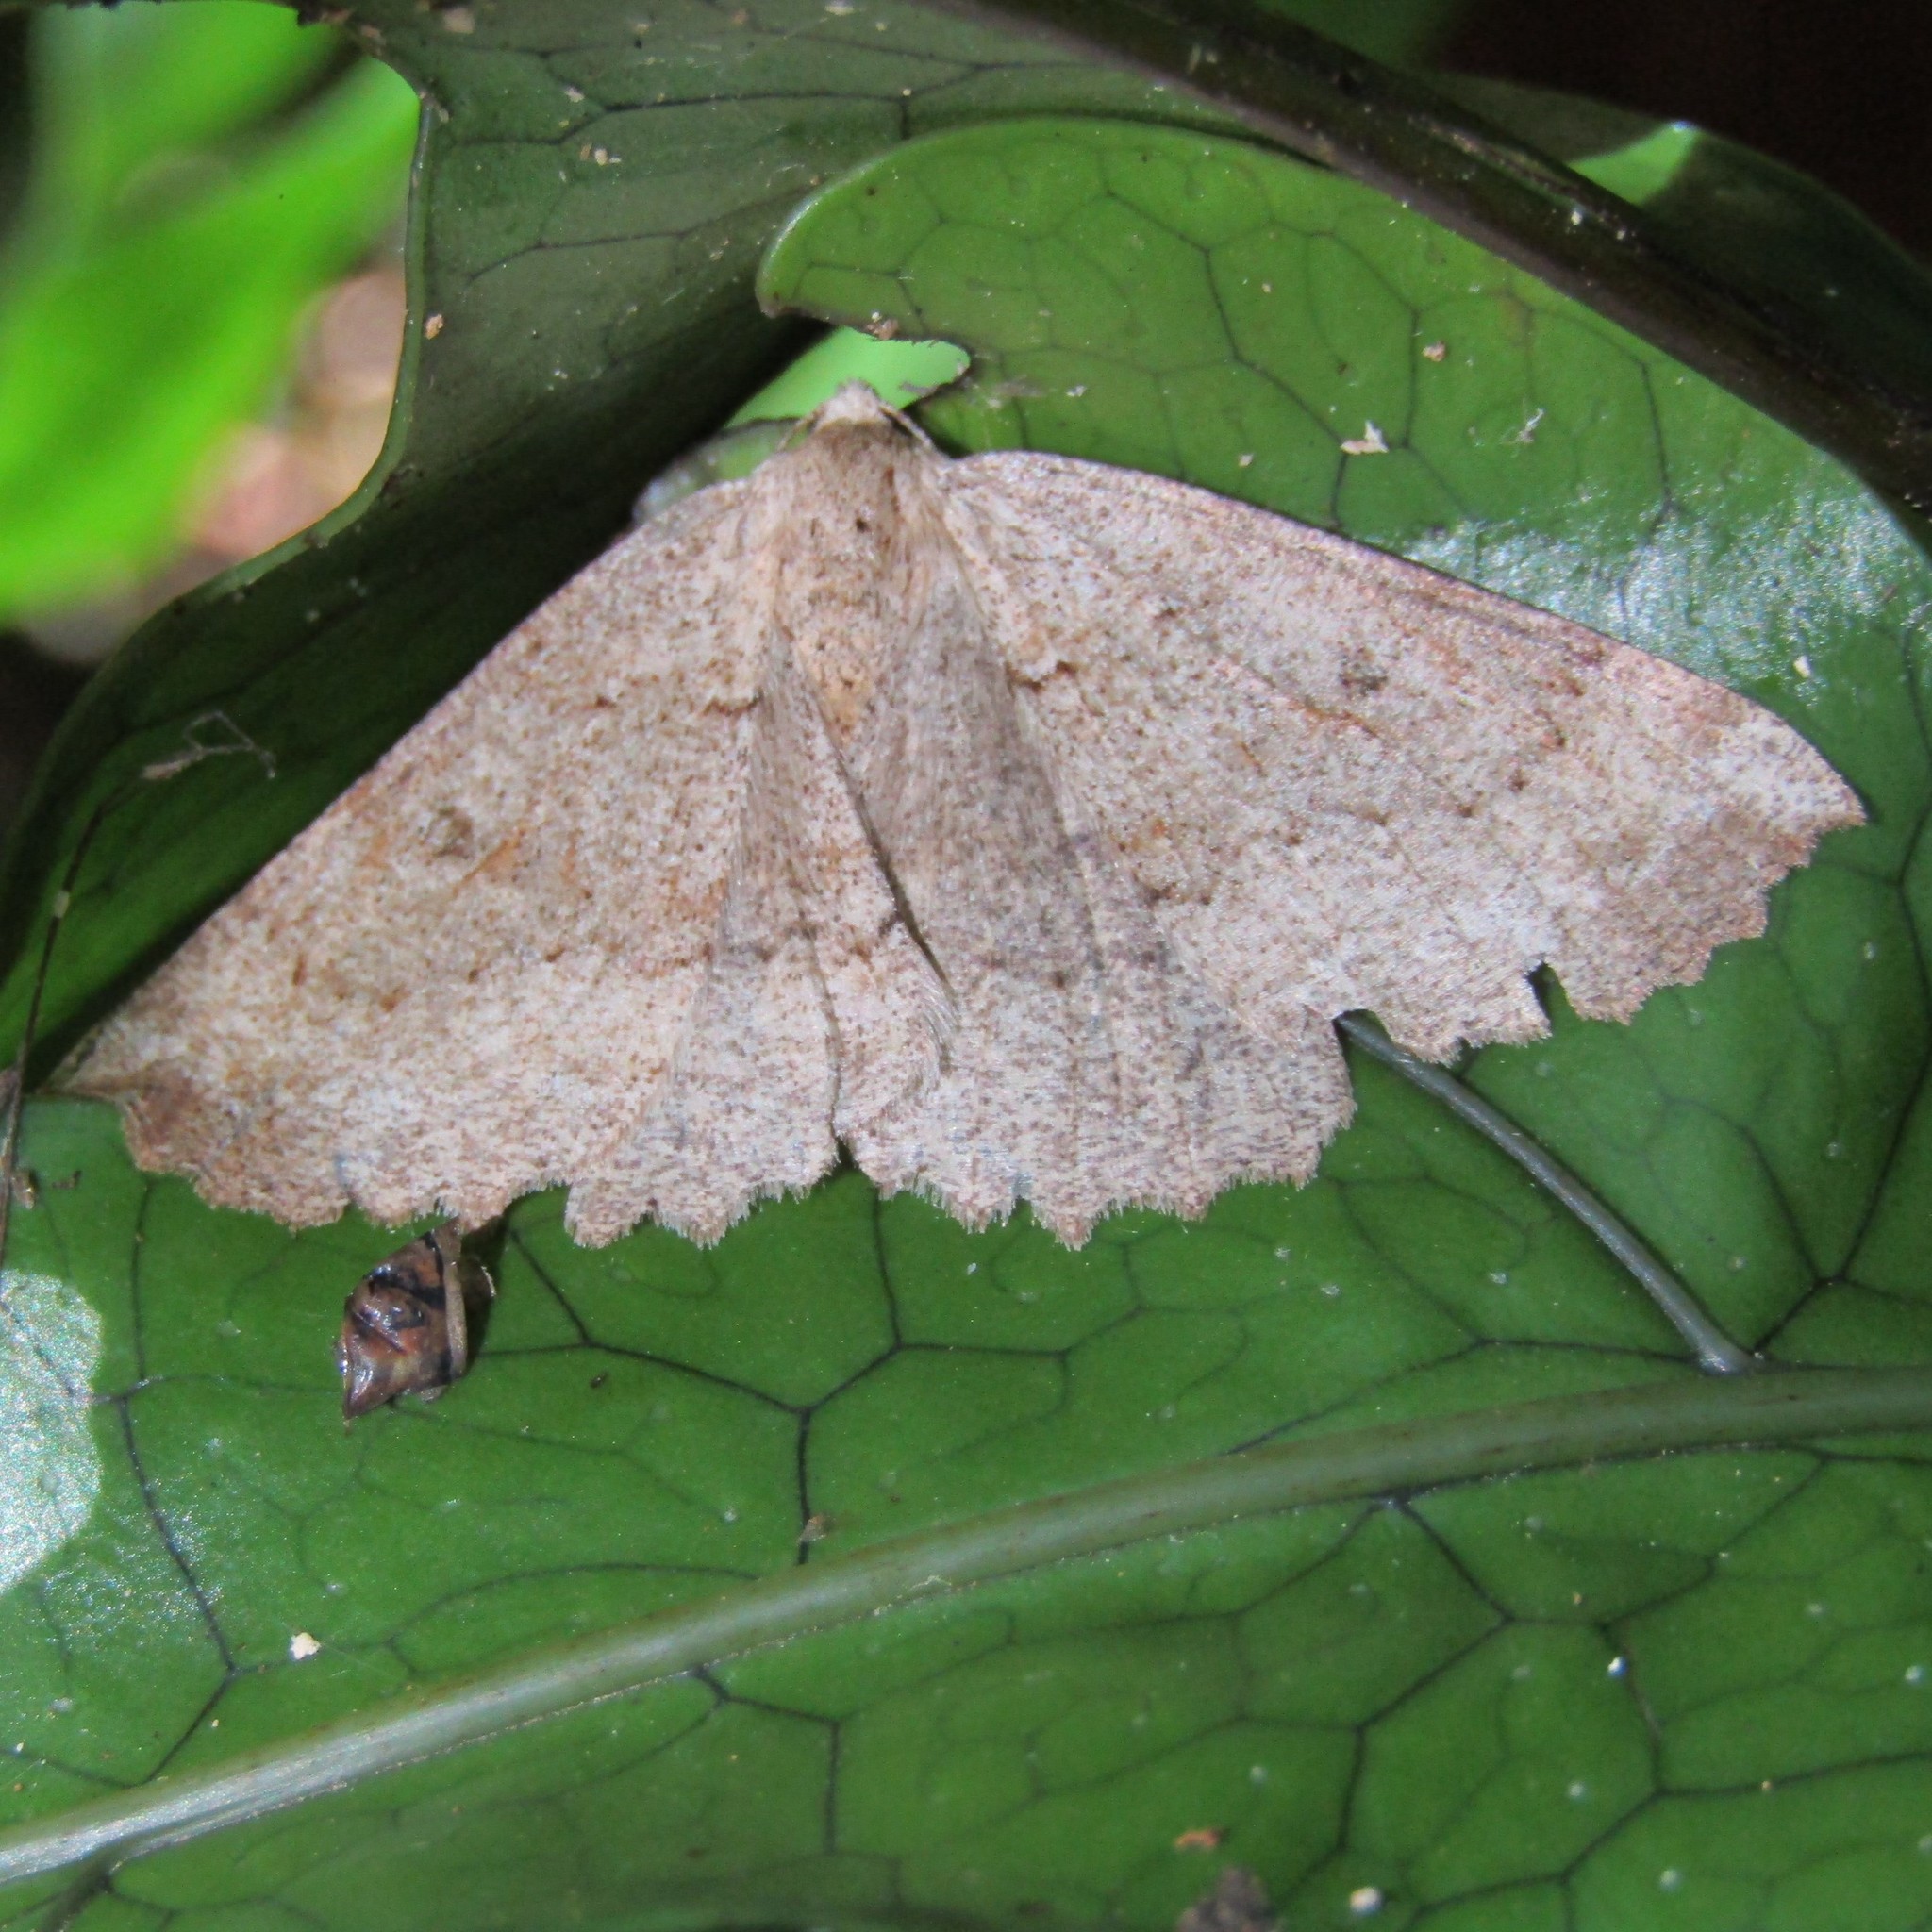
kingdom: Animalia
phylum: Arthropoda
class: Insecta
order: Lepidoptera
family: Geometridae
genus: Cleora
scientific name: Cleora scriptaria
